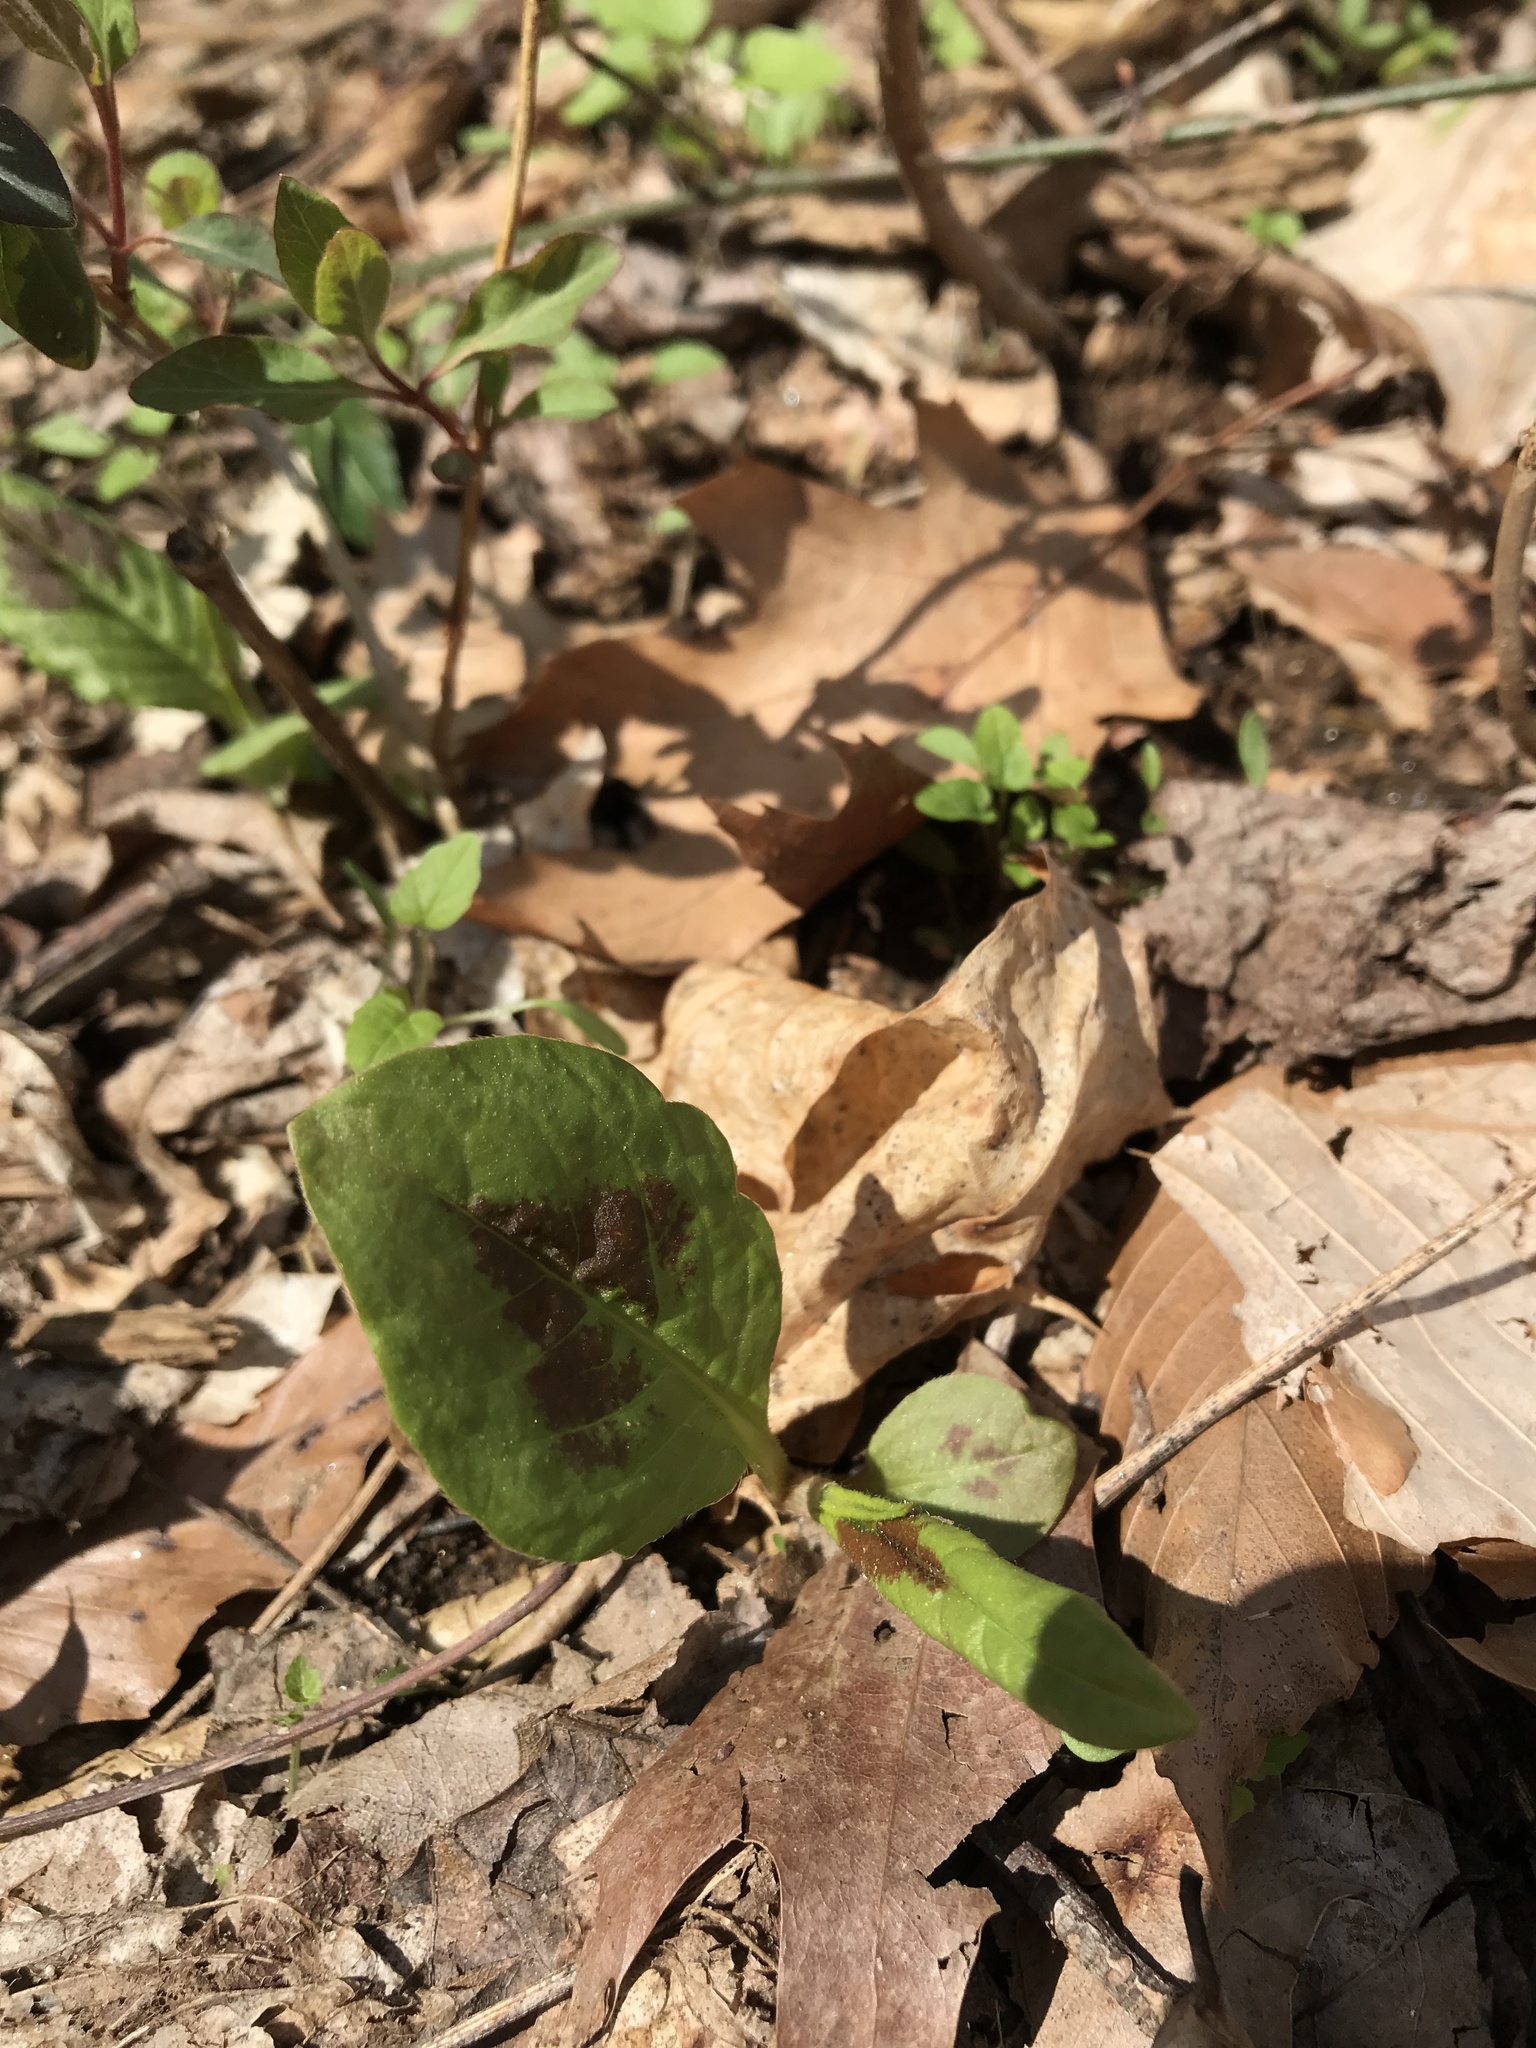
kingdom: Plantae
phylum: Tracheophyta
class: Magnoliopsida
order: Caryophyllales
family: Polygonaceae
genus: Persicaria
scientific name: Persicaria virginiana
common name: Jumpseed
